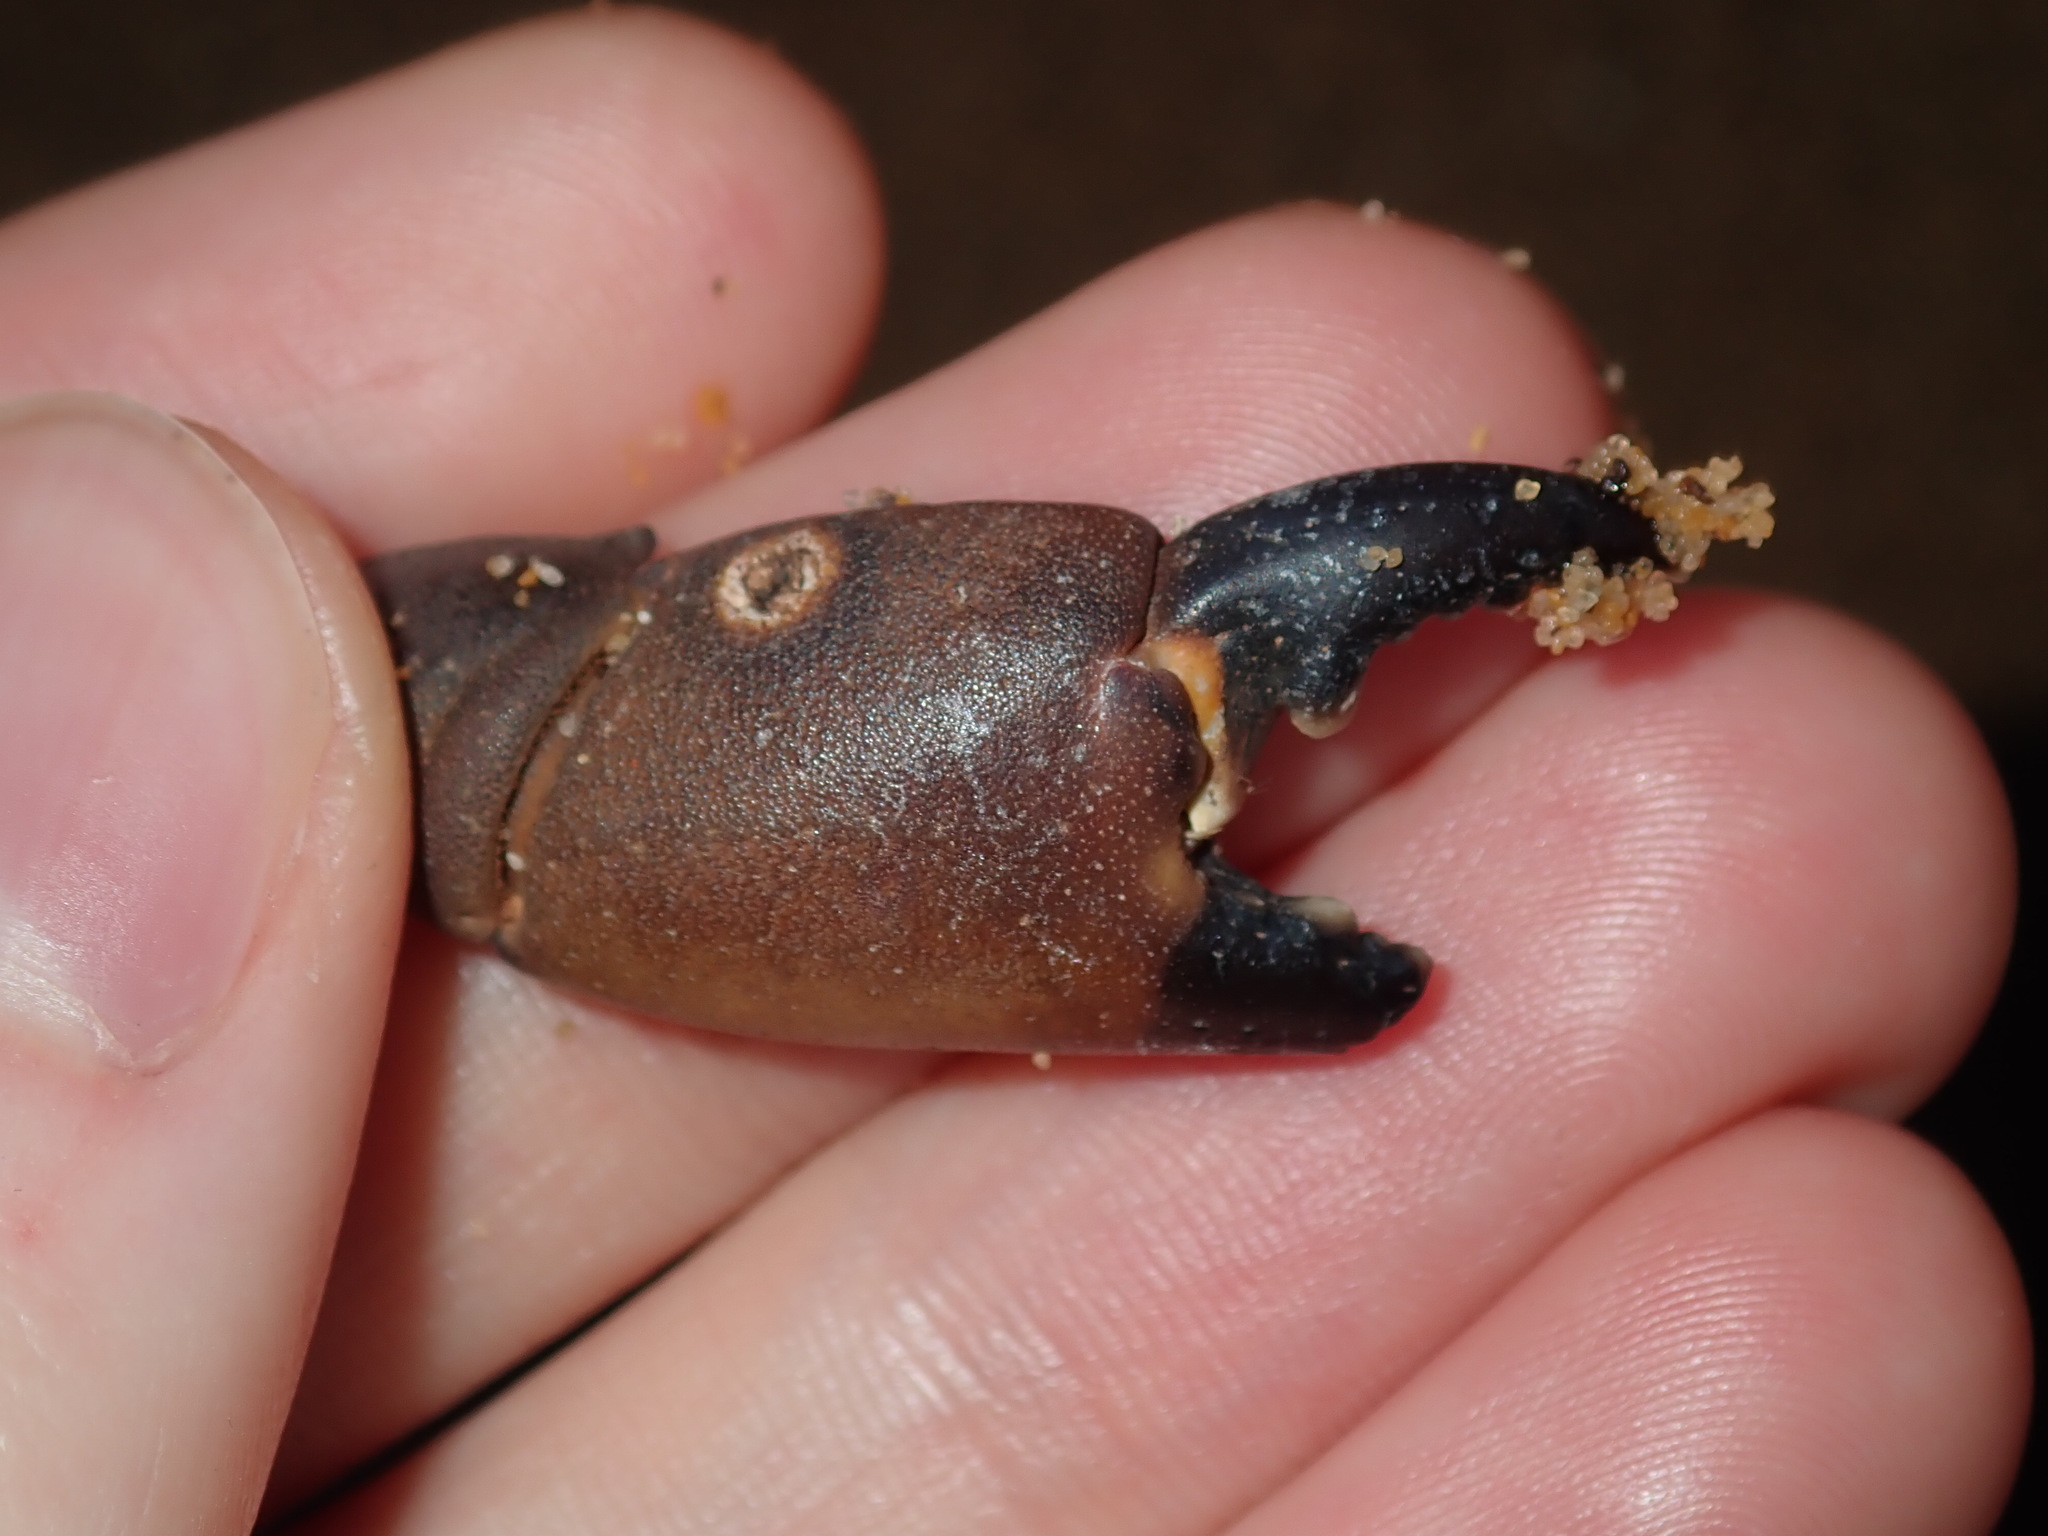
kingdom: Animalia
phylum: Arthropoda
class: Malacostraca
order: Decapoda
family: Oziidae
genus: Ozius
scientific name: Ozius truncatus
